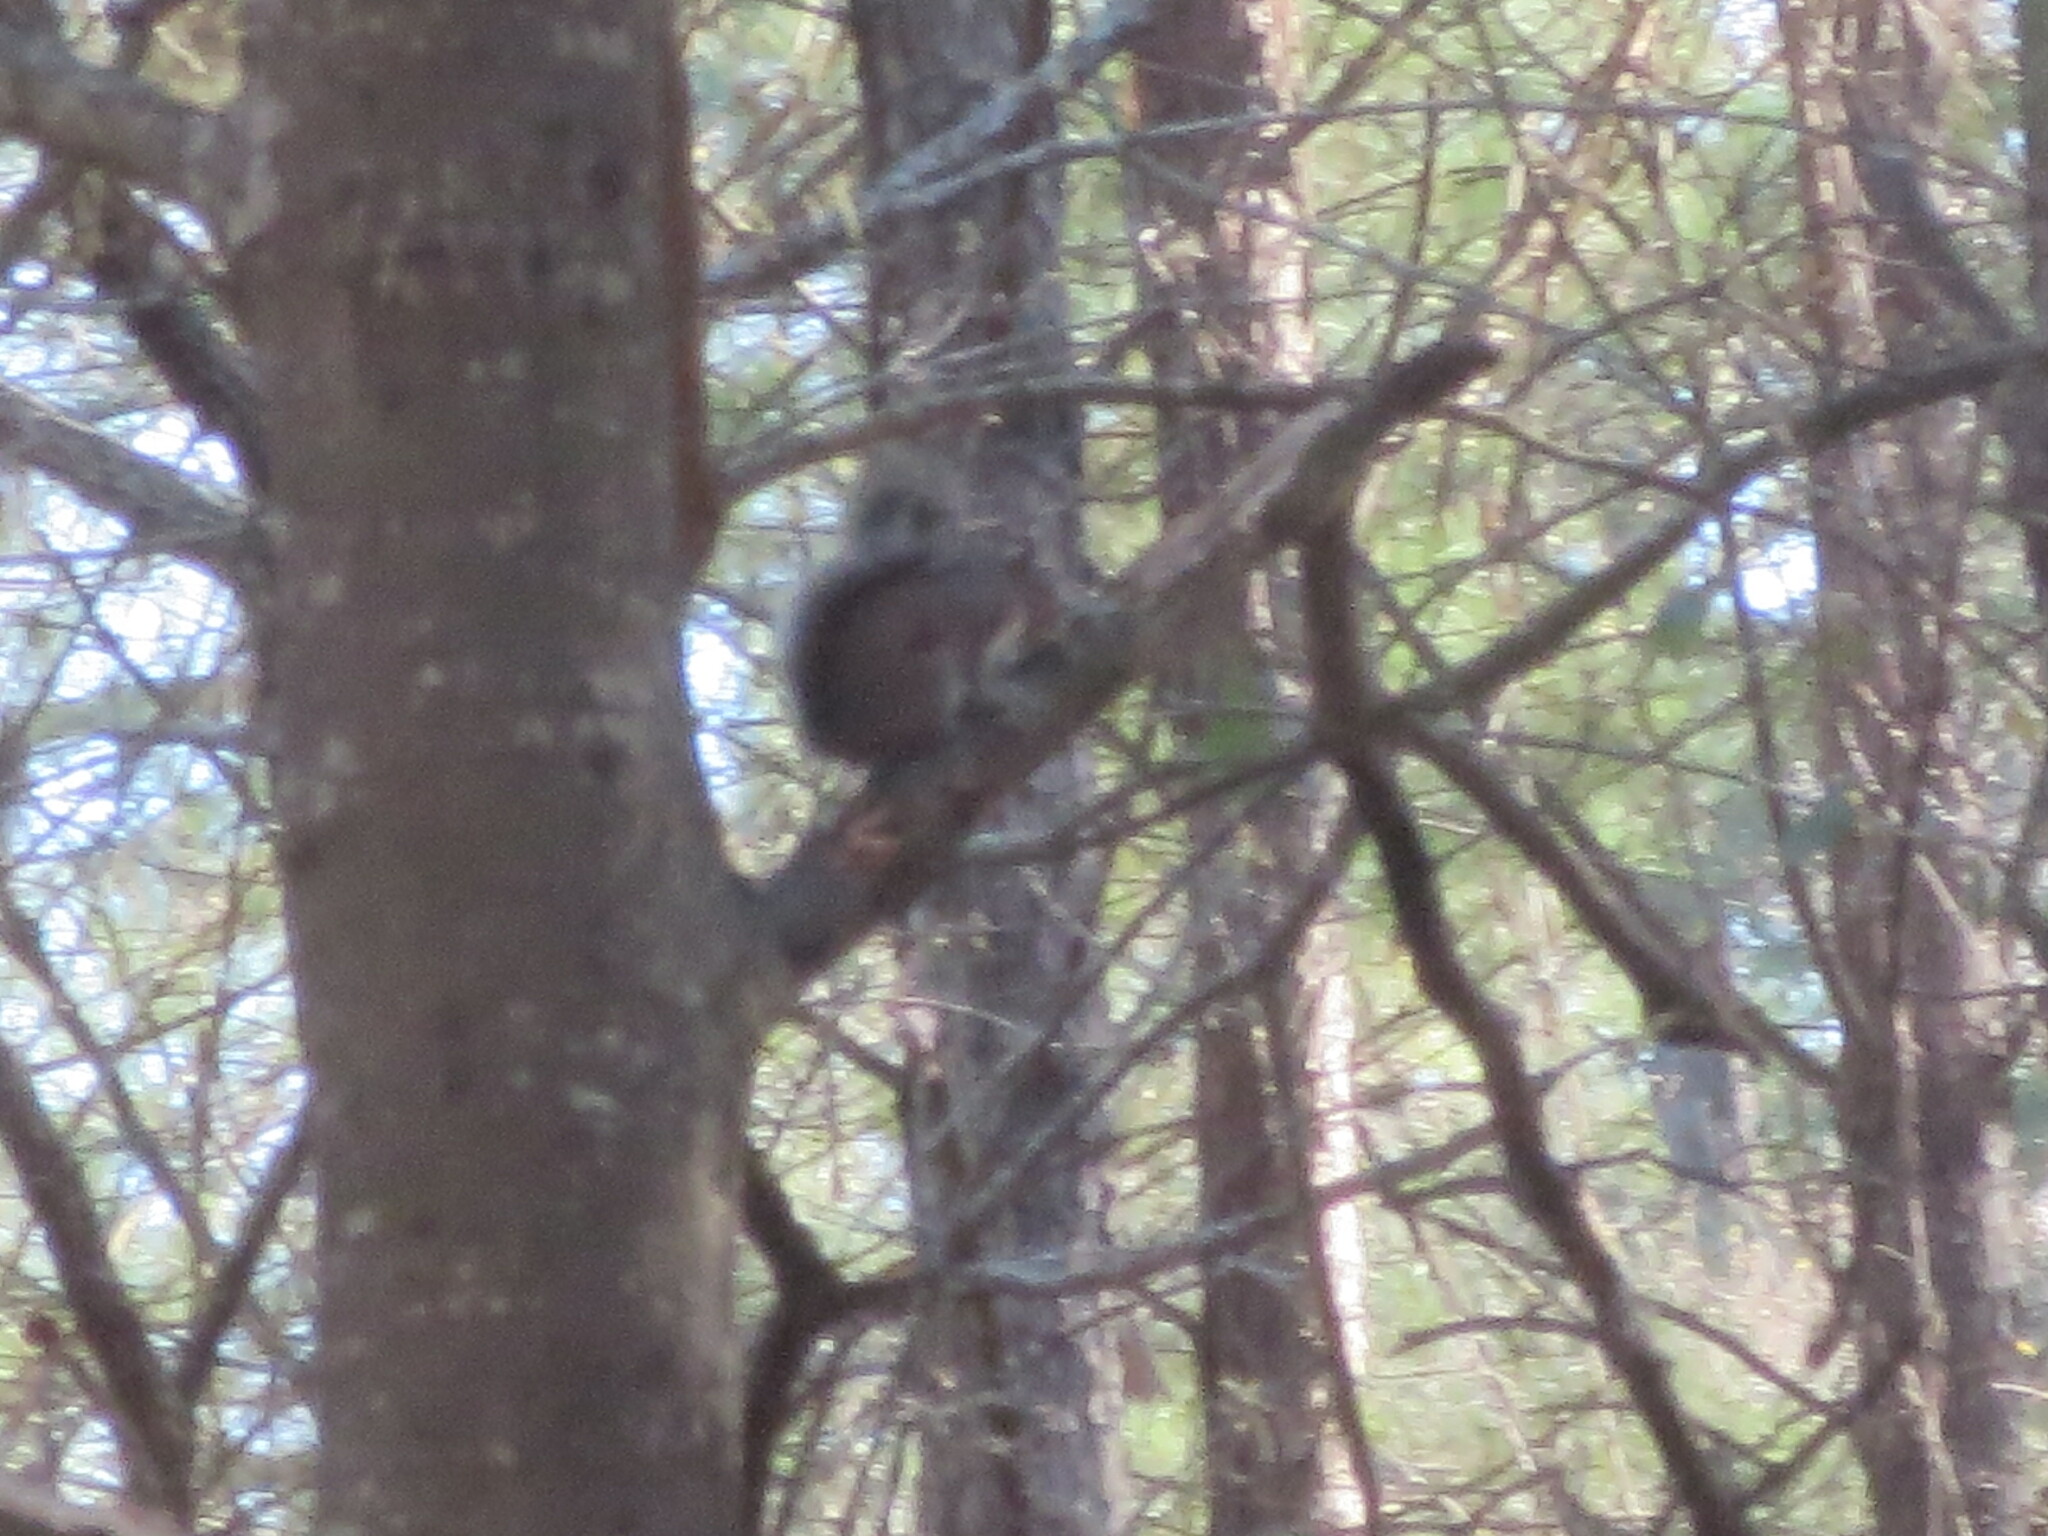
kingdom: Animalia
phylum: Chordata
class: Mammalia
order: Rodentia
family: Sciuridae
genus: Sciurus
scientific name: Sciurus carolinensis
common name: Eastern gray squirrel
